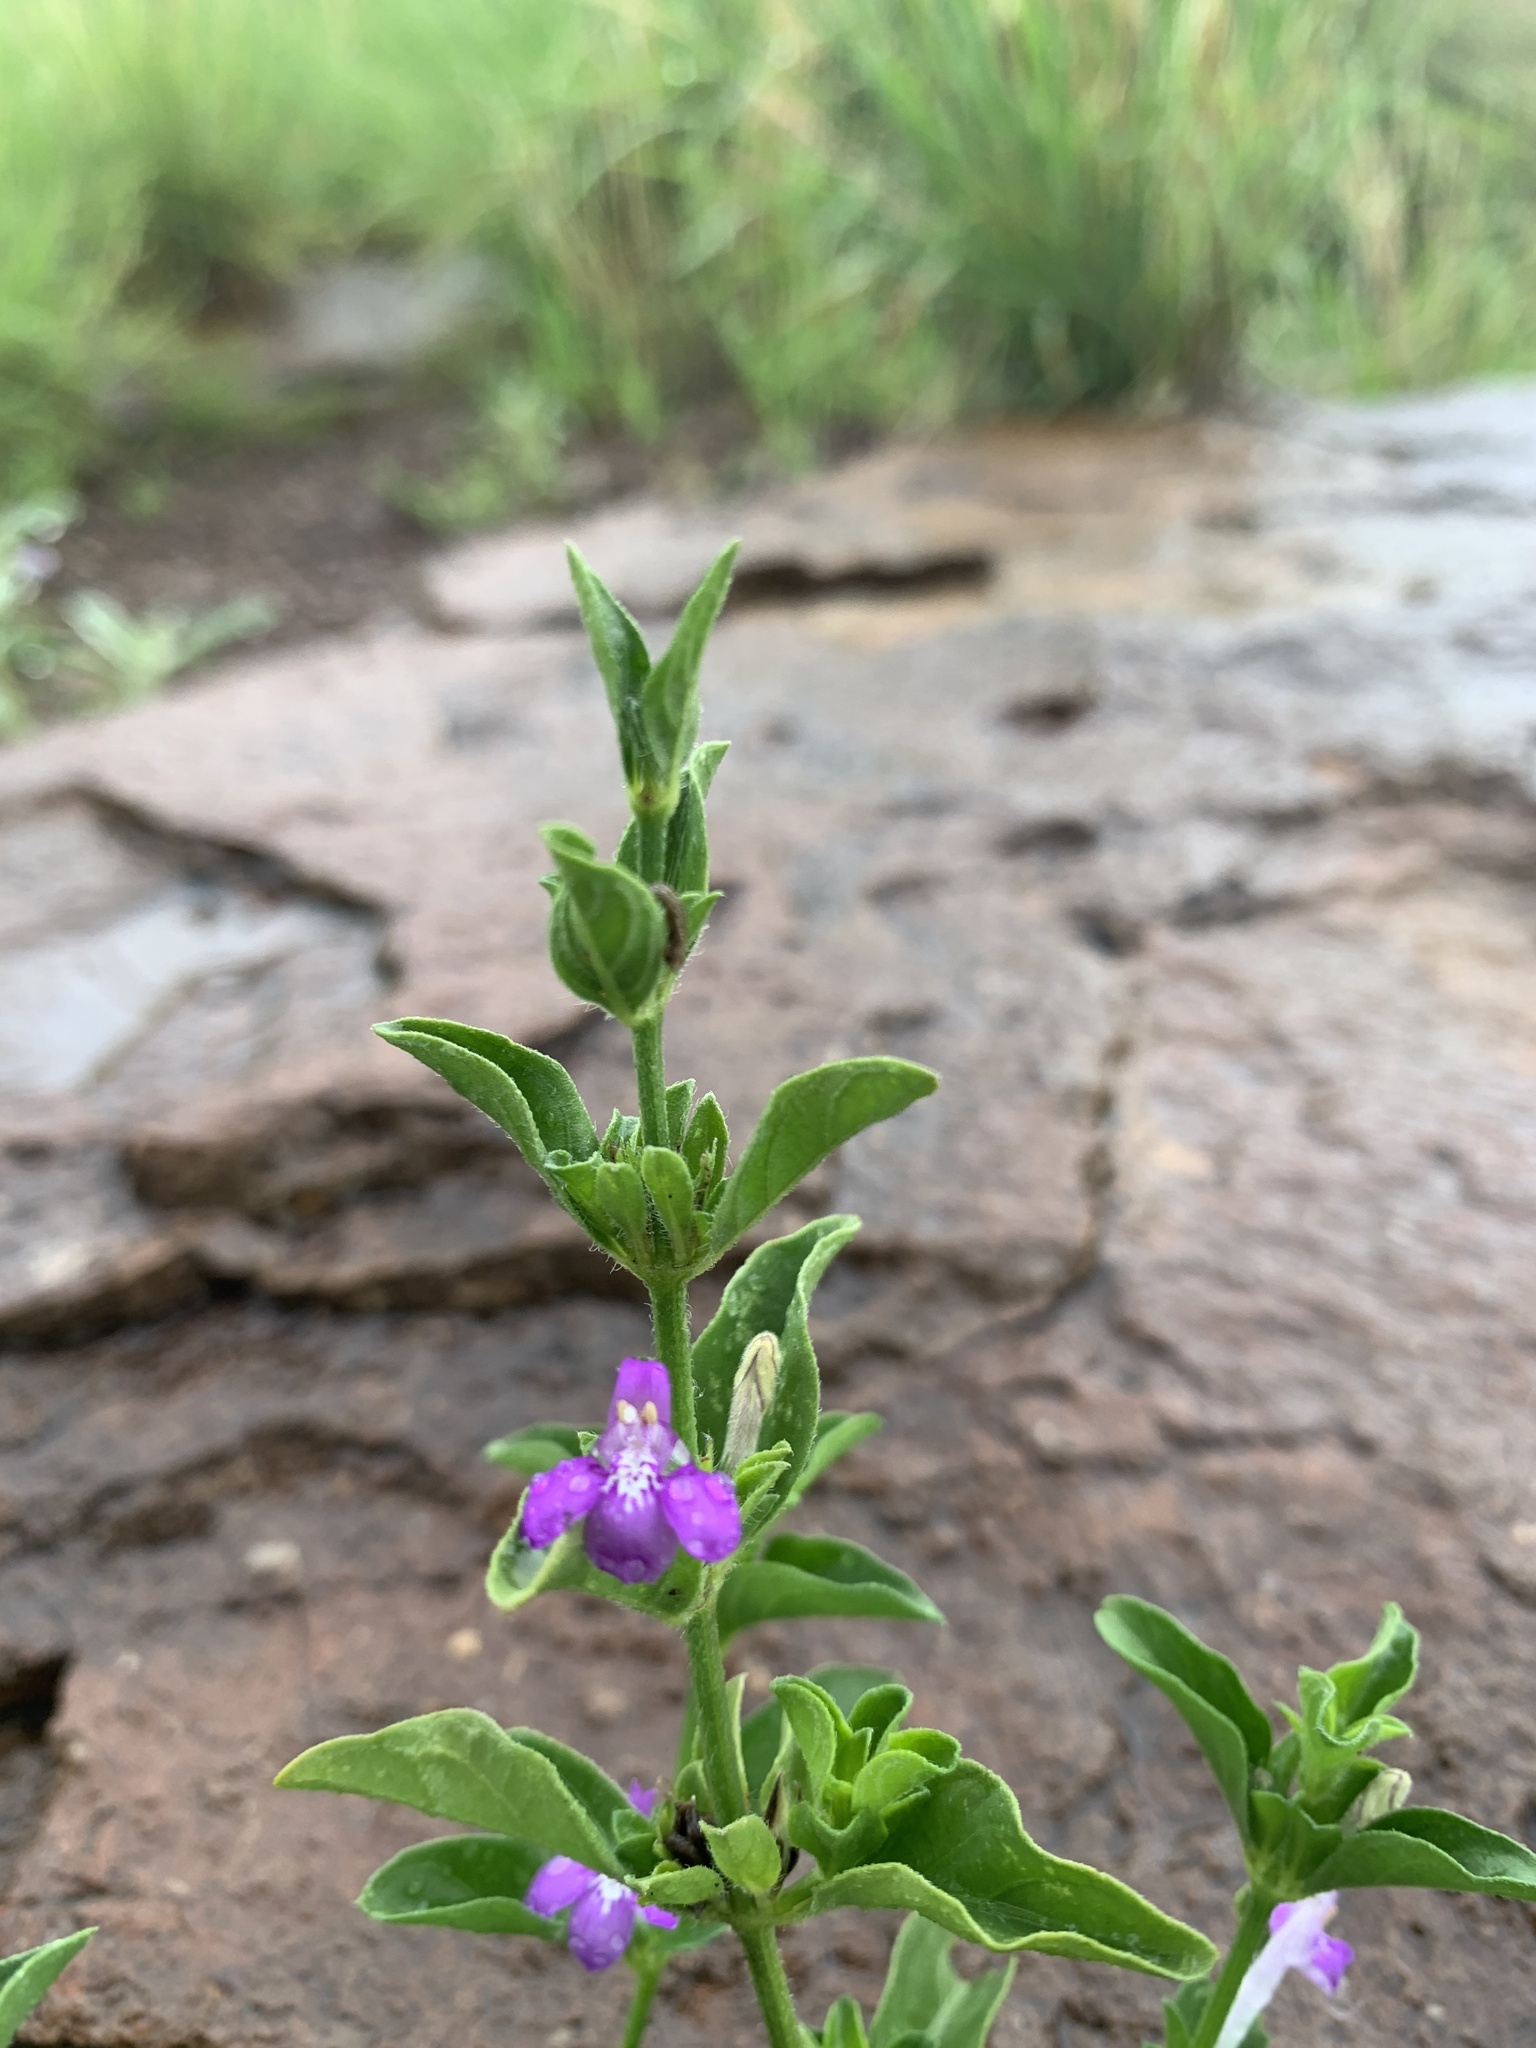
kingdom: Plantae
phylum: Tracheophyta
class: Magnoliopsida
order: Lamiales
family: Acanthaceae
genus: Justicia
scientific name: Justicia pilosella
